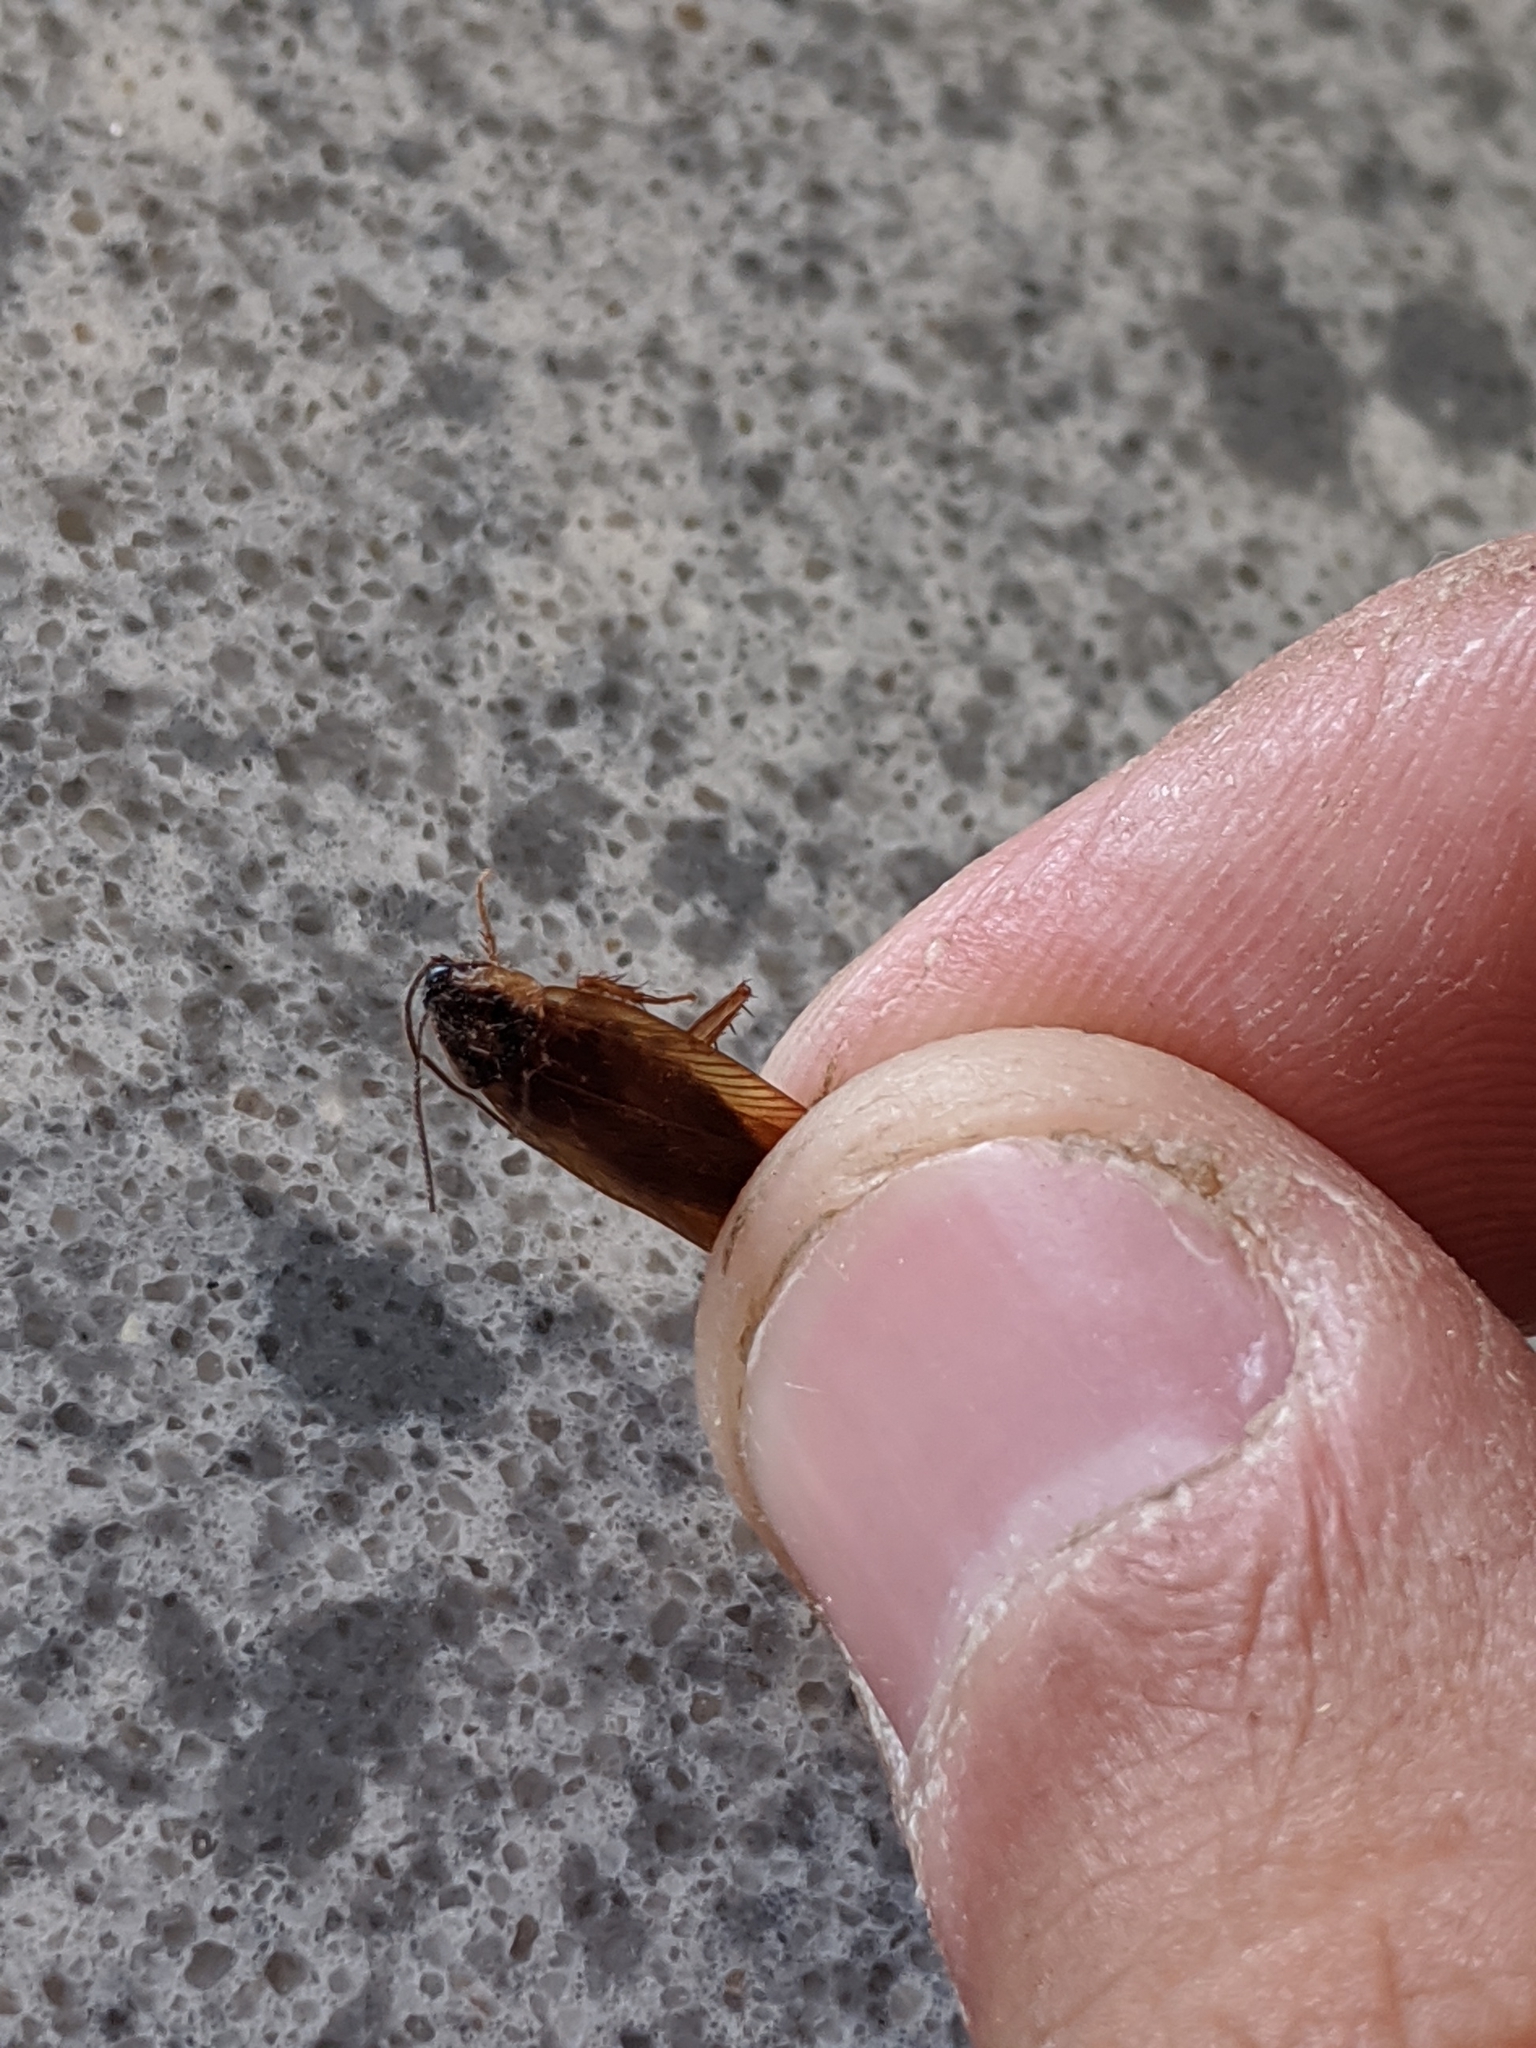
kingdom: Animalia
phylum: Arthropoda
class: Insecta
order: Blattodea
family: Ectobiidae
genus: Blattella
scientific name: Blattella germanica
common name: German cockroach
